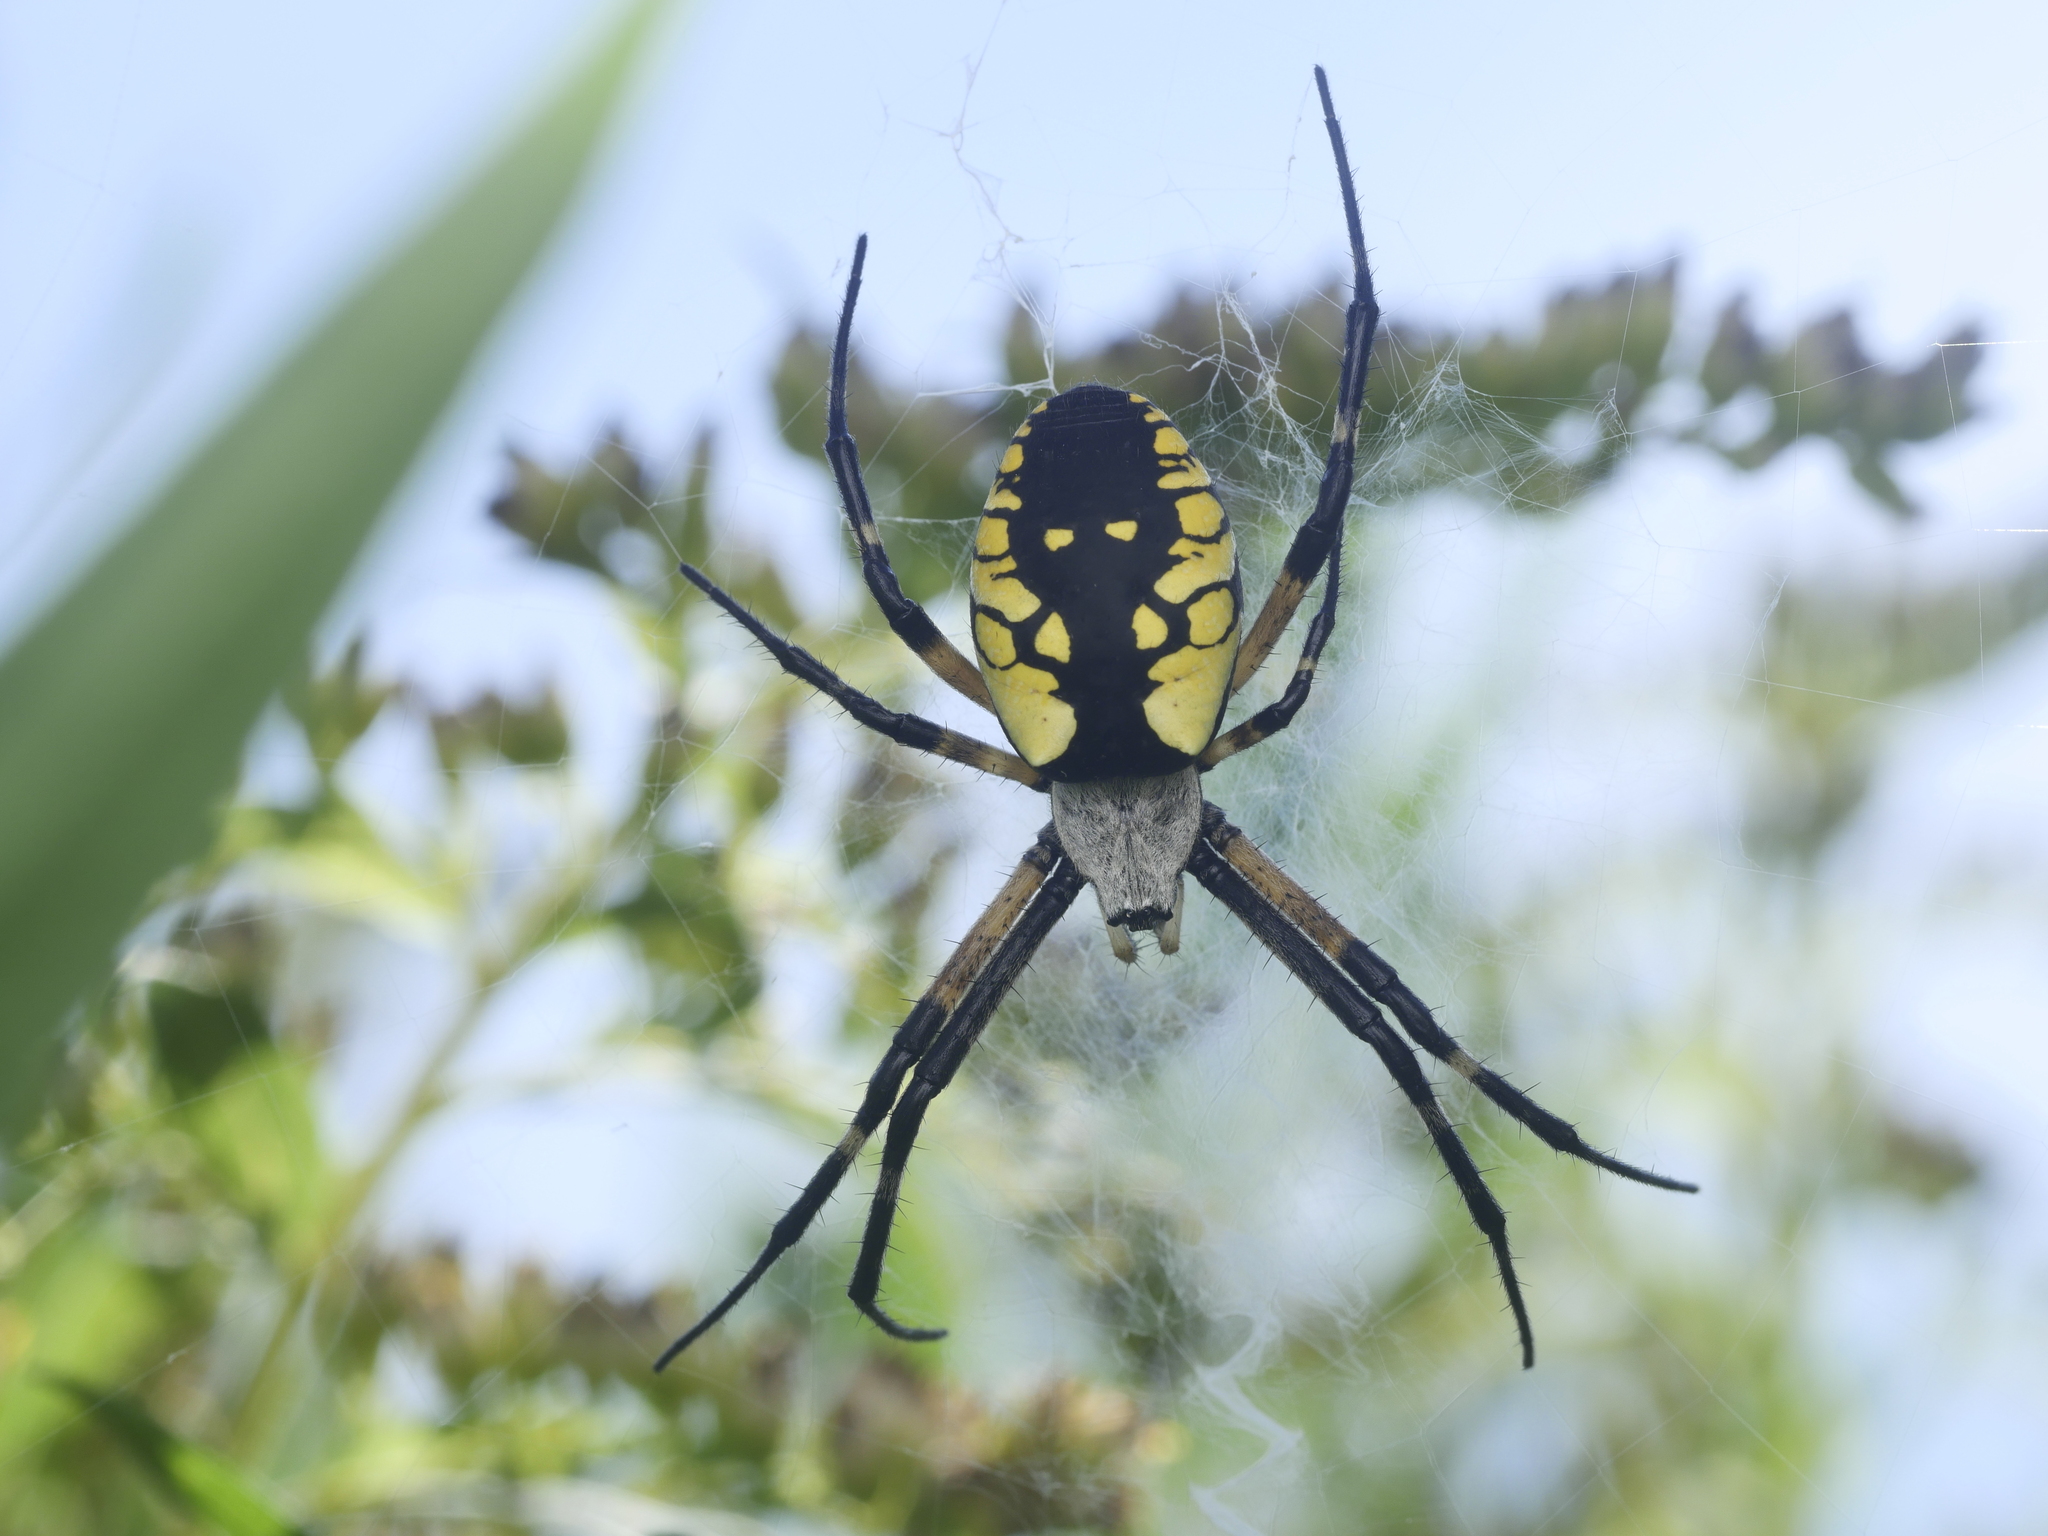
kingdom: Animalia
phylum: Arthropoda
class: Arachnida
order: Araneae
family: Araneidae
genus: Argiope
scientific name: Argiope aurantia
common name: Orb weavers
